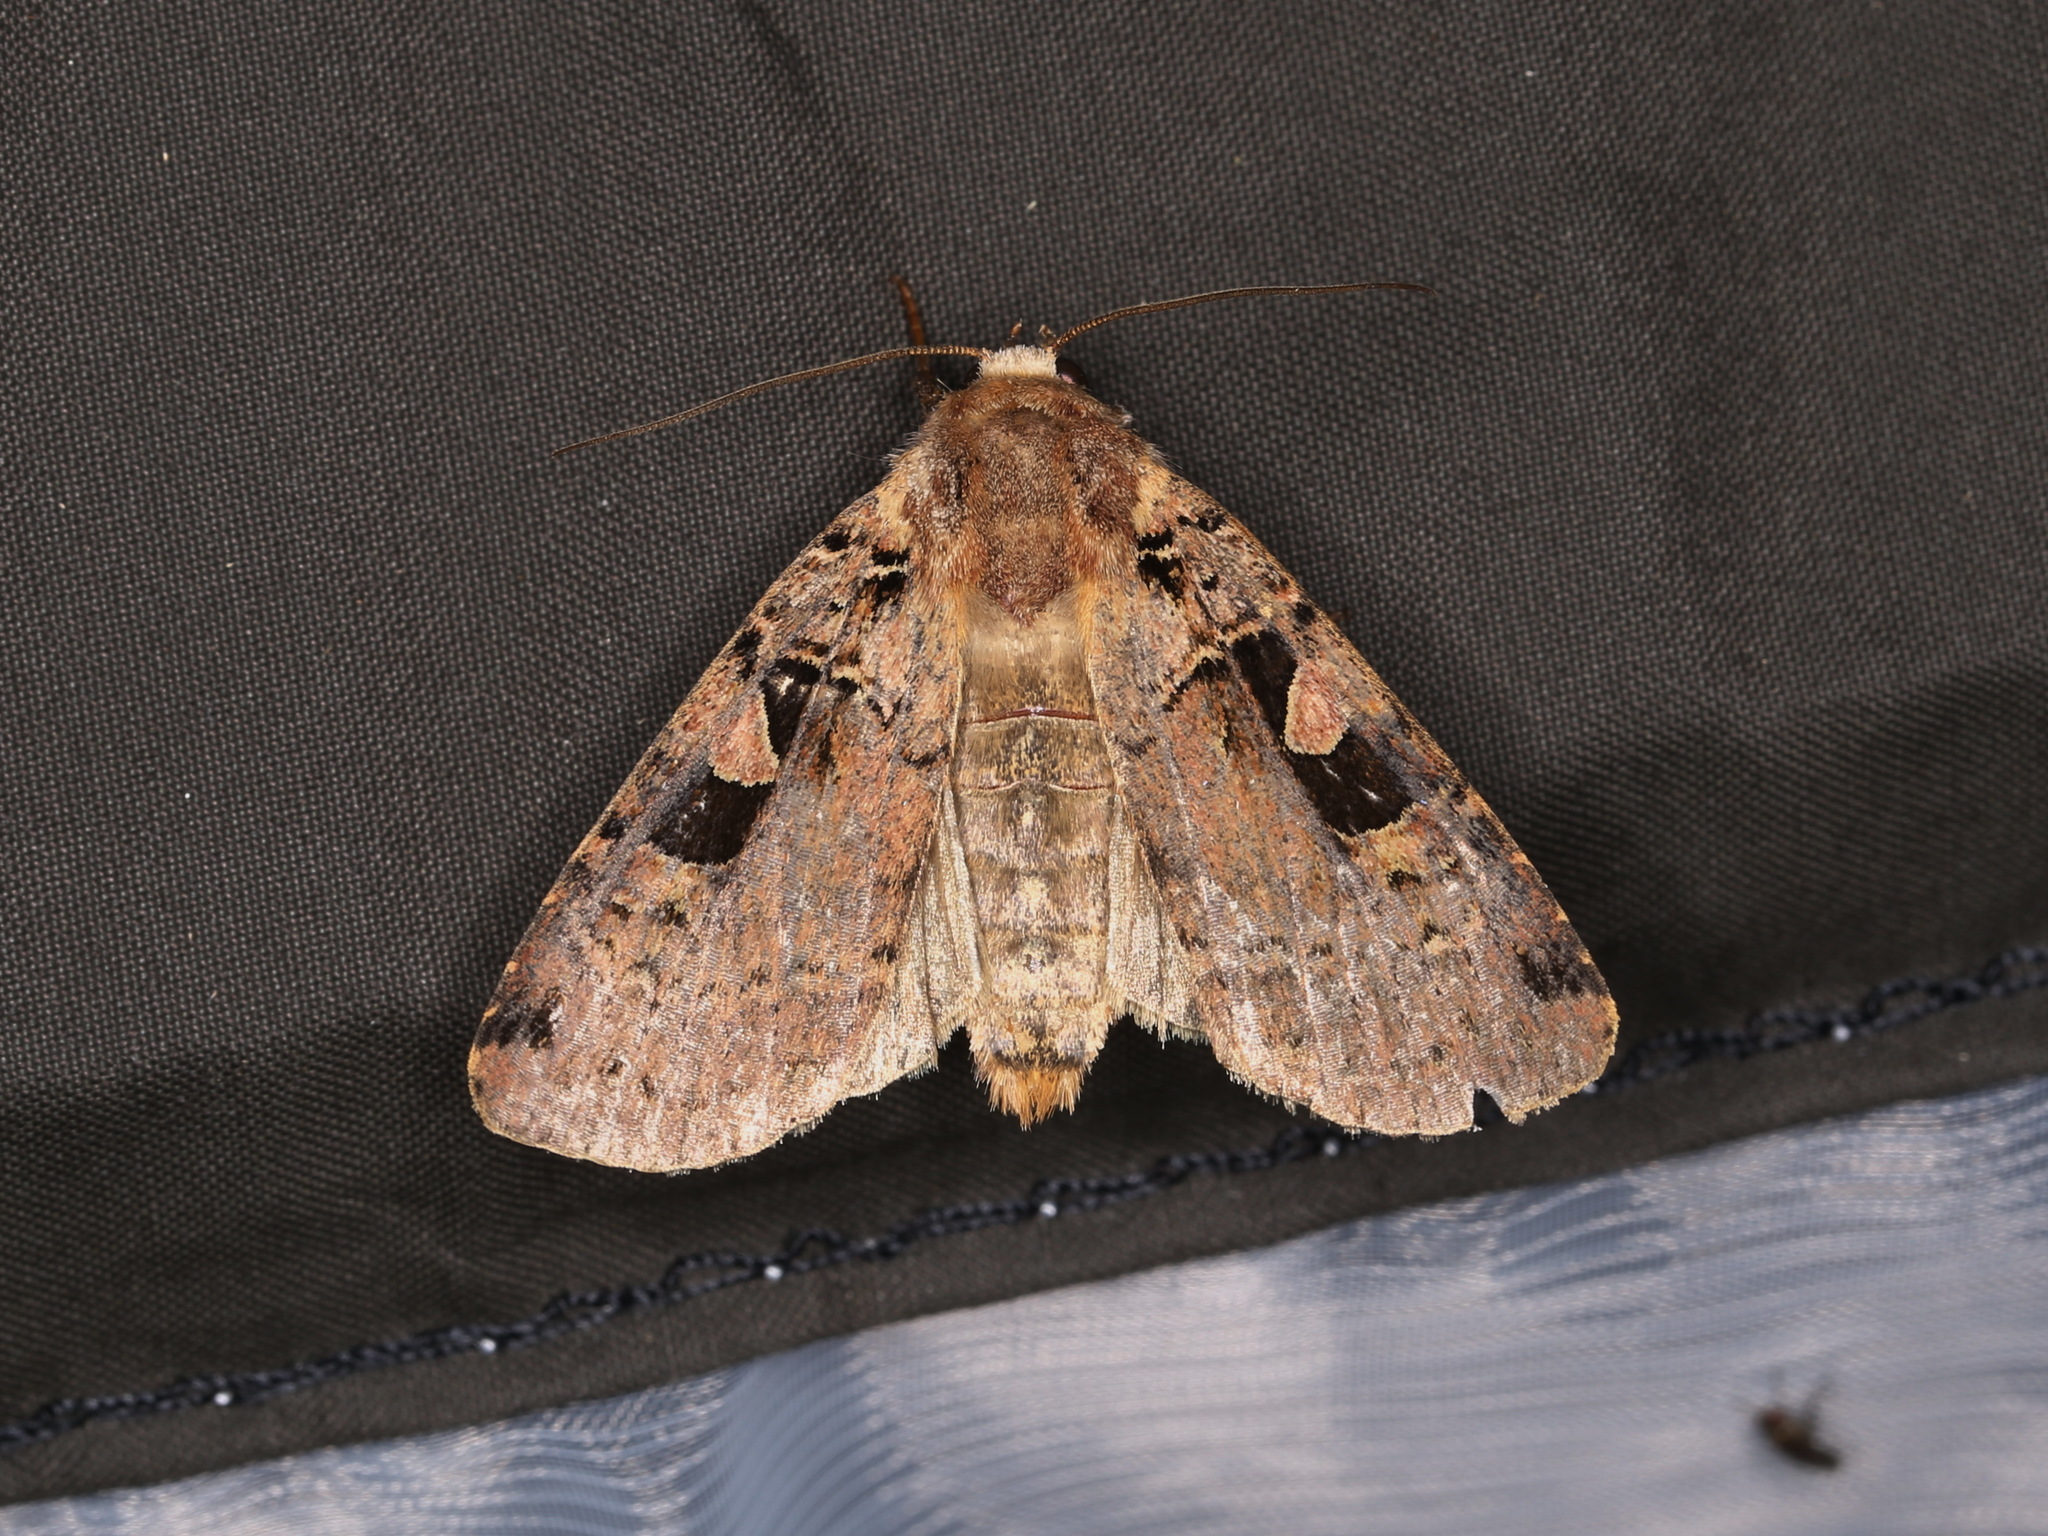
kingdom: Animalia
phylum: Arthropoda
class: Insecta
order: Lepidoptera
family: Noctuidae
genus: Xestia
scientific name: Xestia triangulum
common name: Double square-spot
